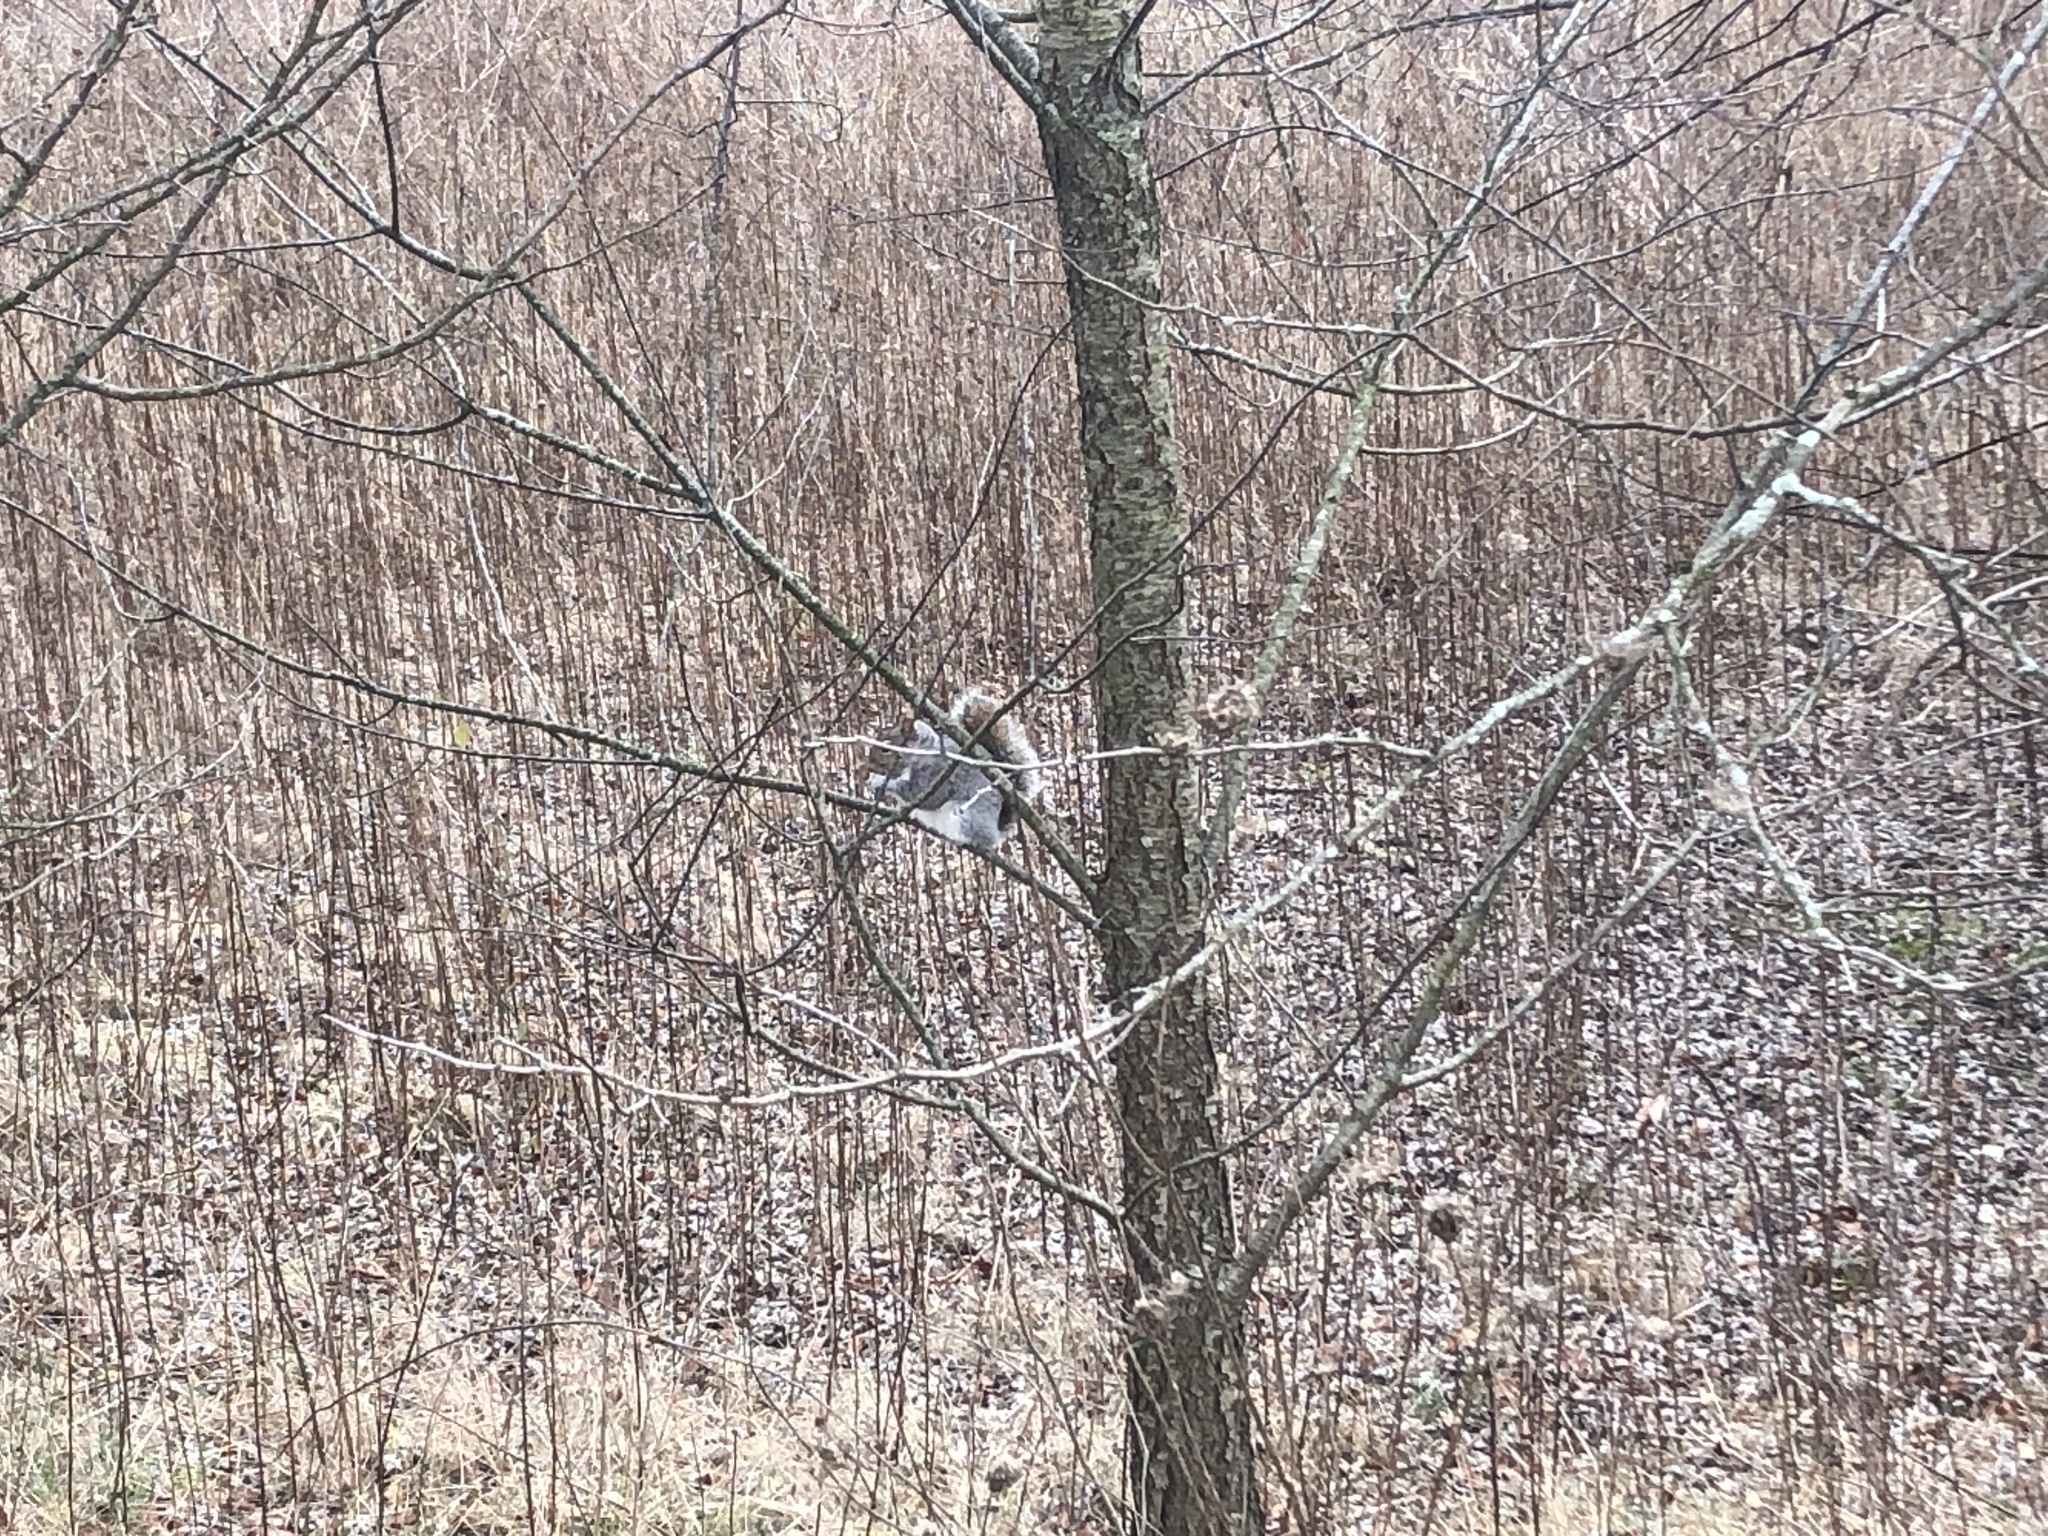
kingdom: Animalia
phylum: Chordata
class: Mammalia
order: Rodentia
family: Sciuridae
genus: Sciurus
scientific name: Sciurus carolinensis
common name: Eastern gray squirrel
